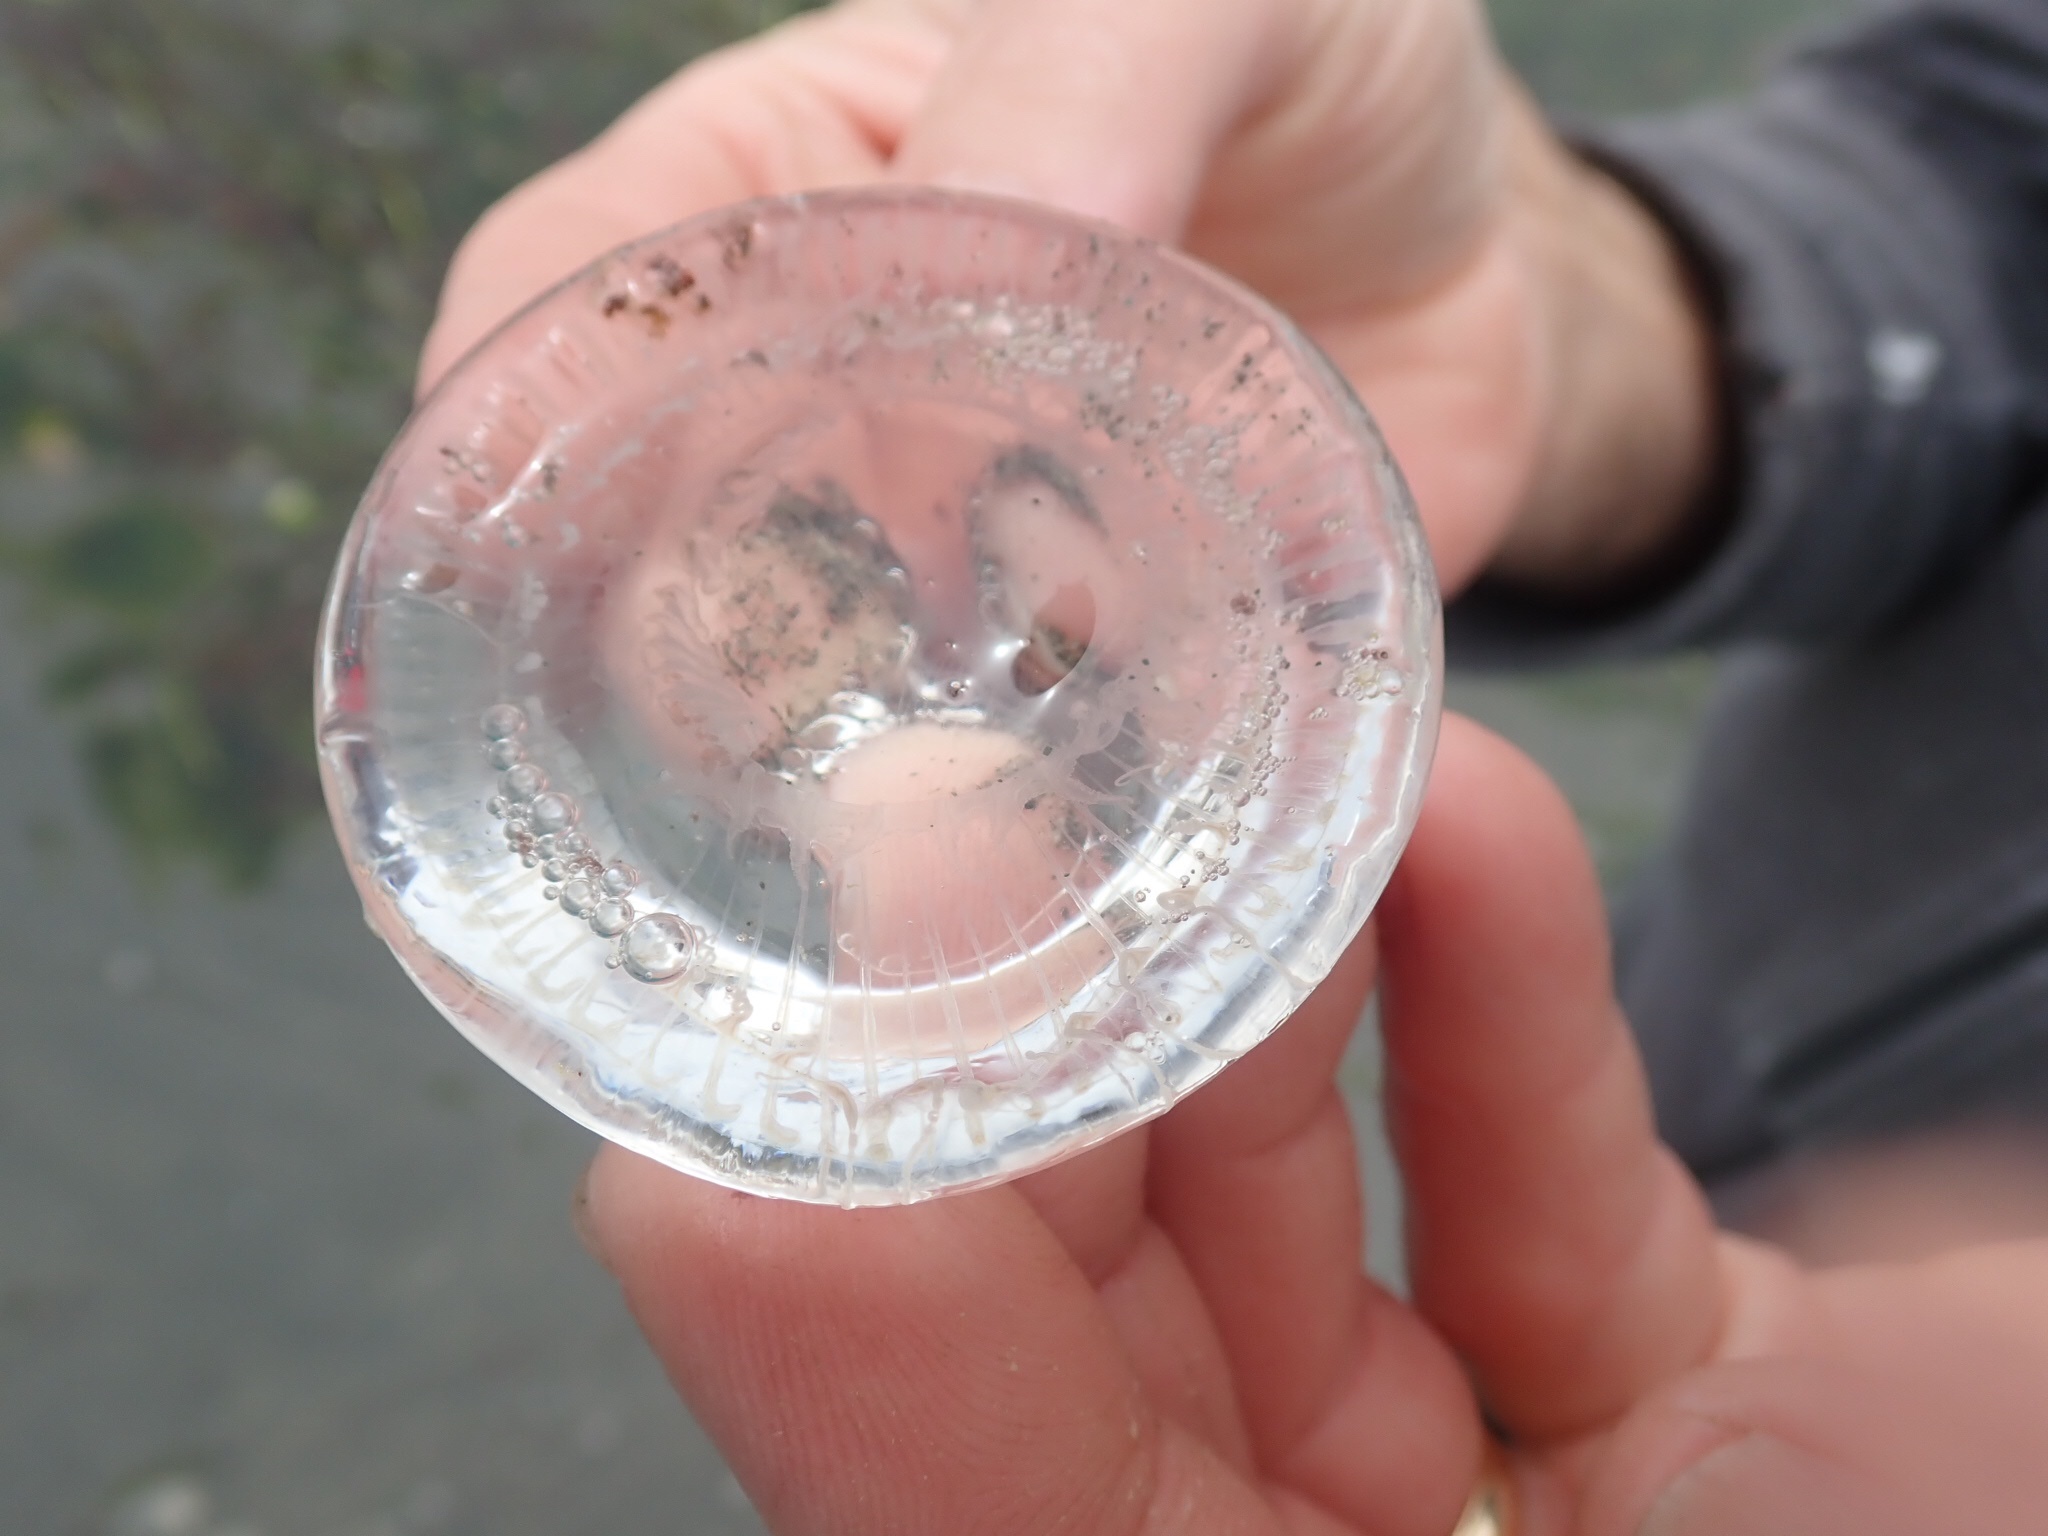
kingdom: Animalia
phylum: Cnidaria
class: Hydrozoa
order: Leptothecata
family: Aequoreidae
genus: Aequorea
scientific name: Aequorea victoria
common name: Water jellyfish
